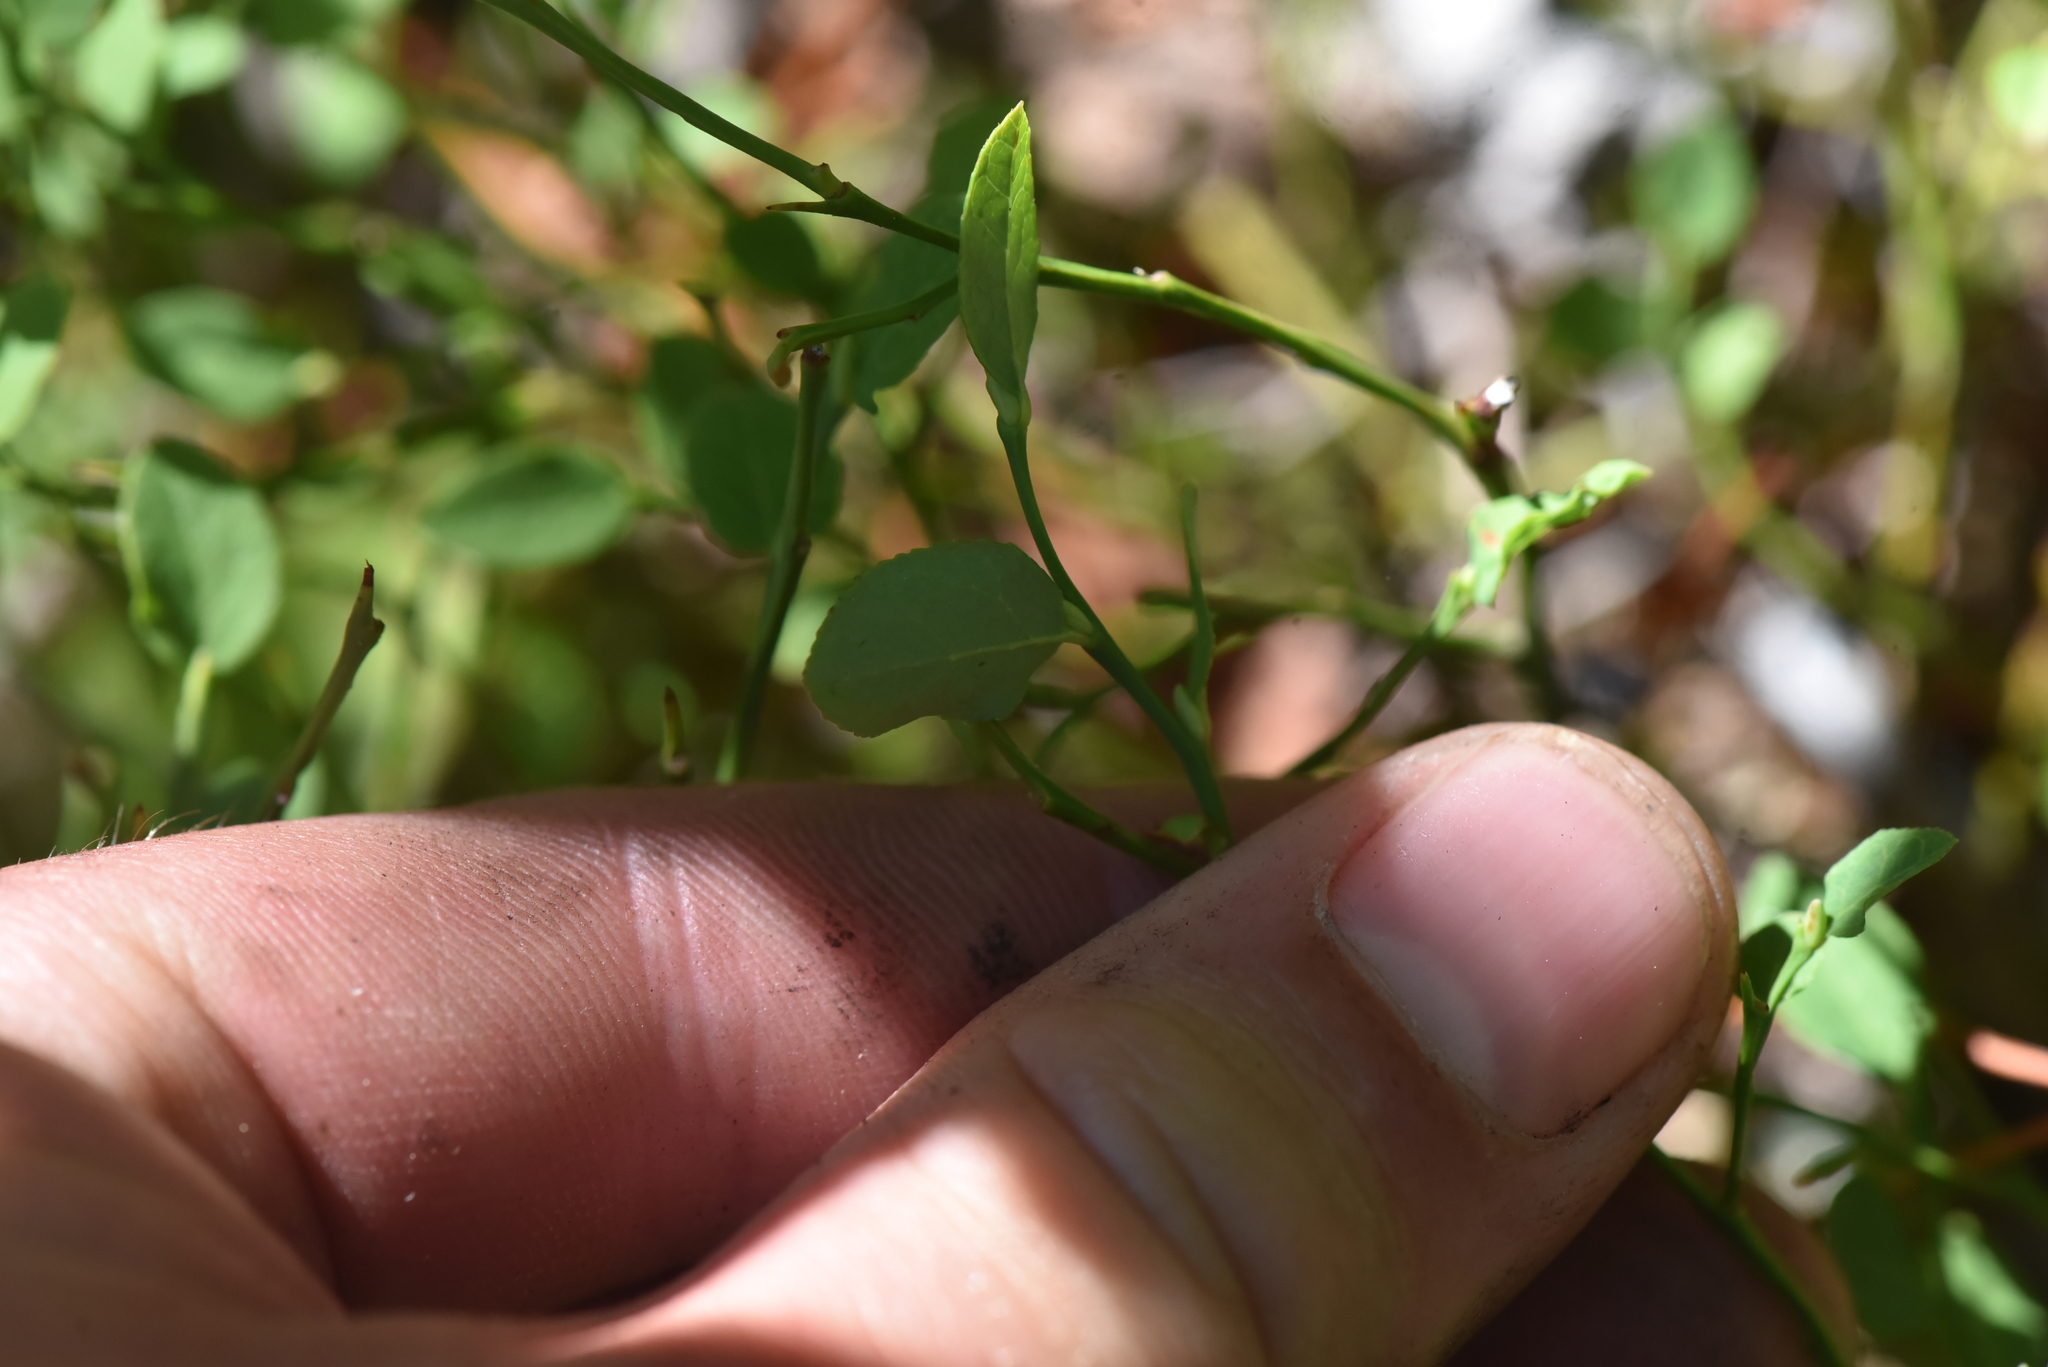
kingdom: Plantae
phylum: Tracheophyta
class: Magnoliopsida
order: Ericales
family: Ericaceae
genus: Vaccinium
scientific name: Vaccinium scoparium
